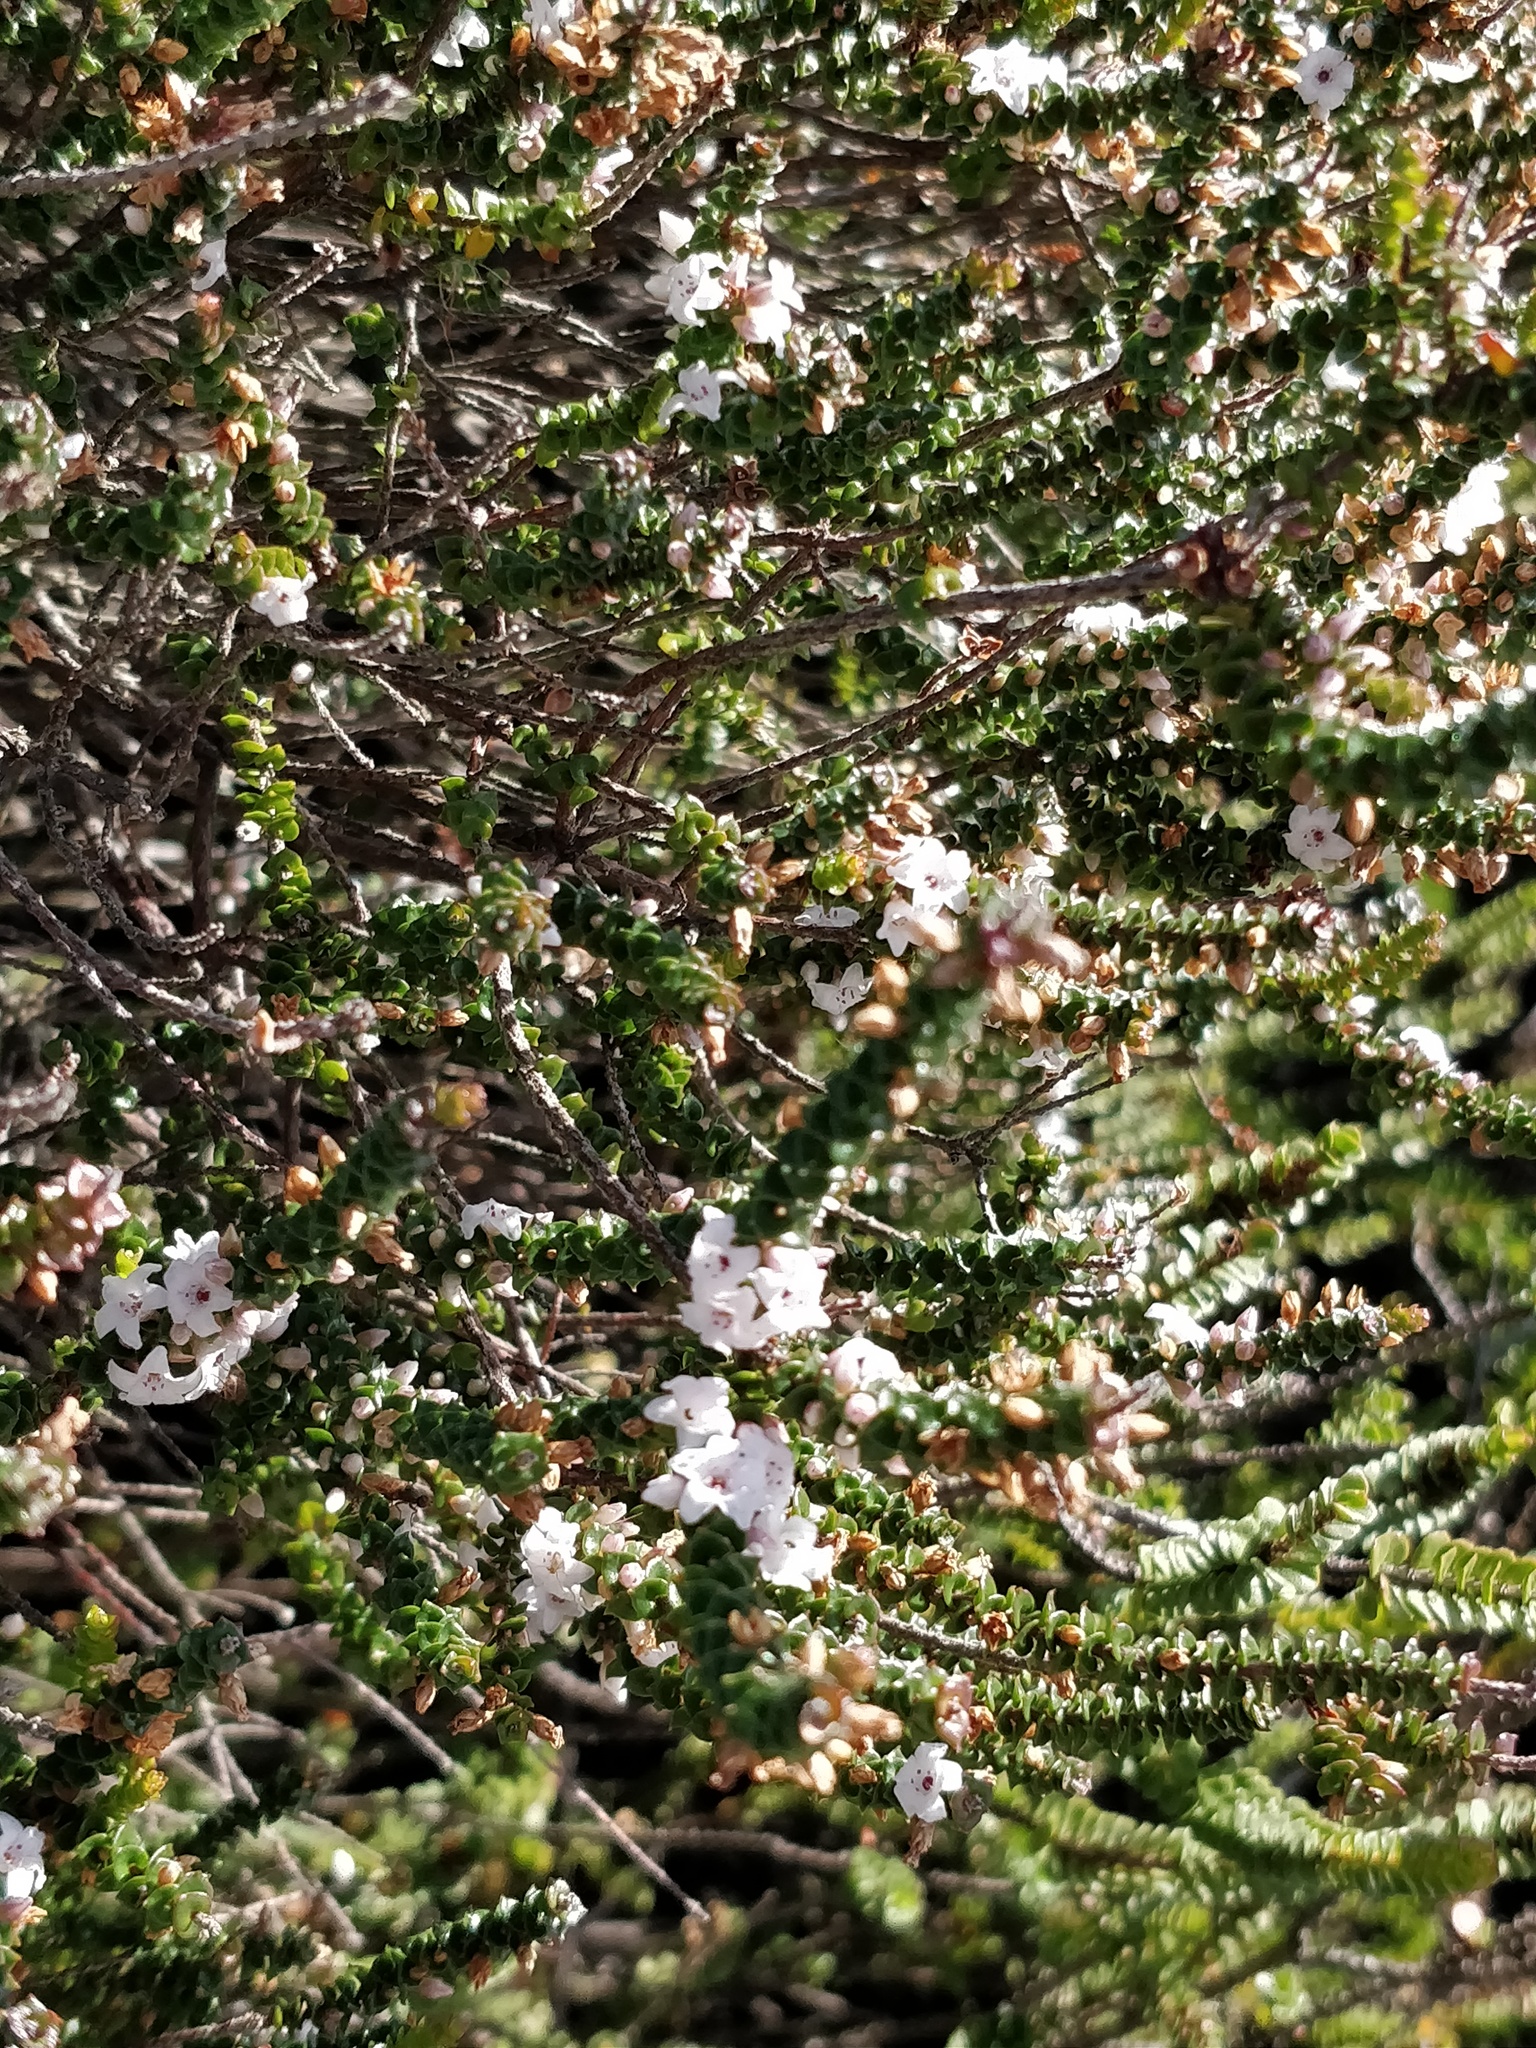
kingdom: Plantae
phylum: Tracheophyta
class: Magnoliopsida
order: Ericales
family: Ericaceae
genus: Epacris
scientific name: Epacris microphylla
